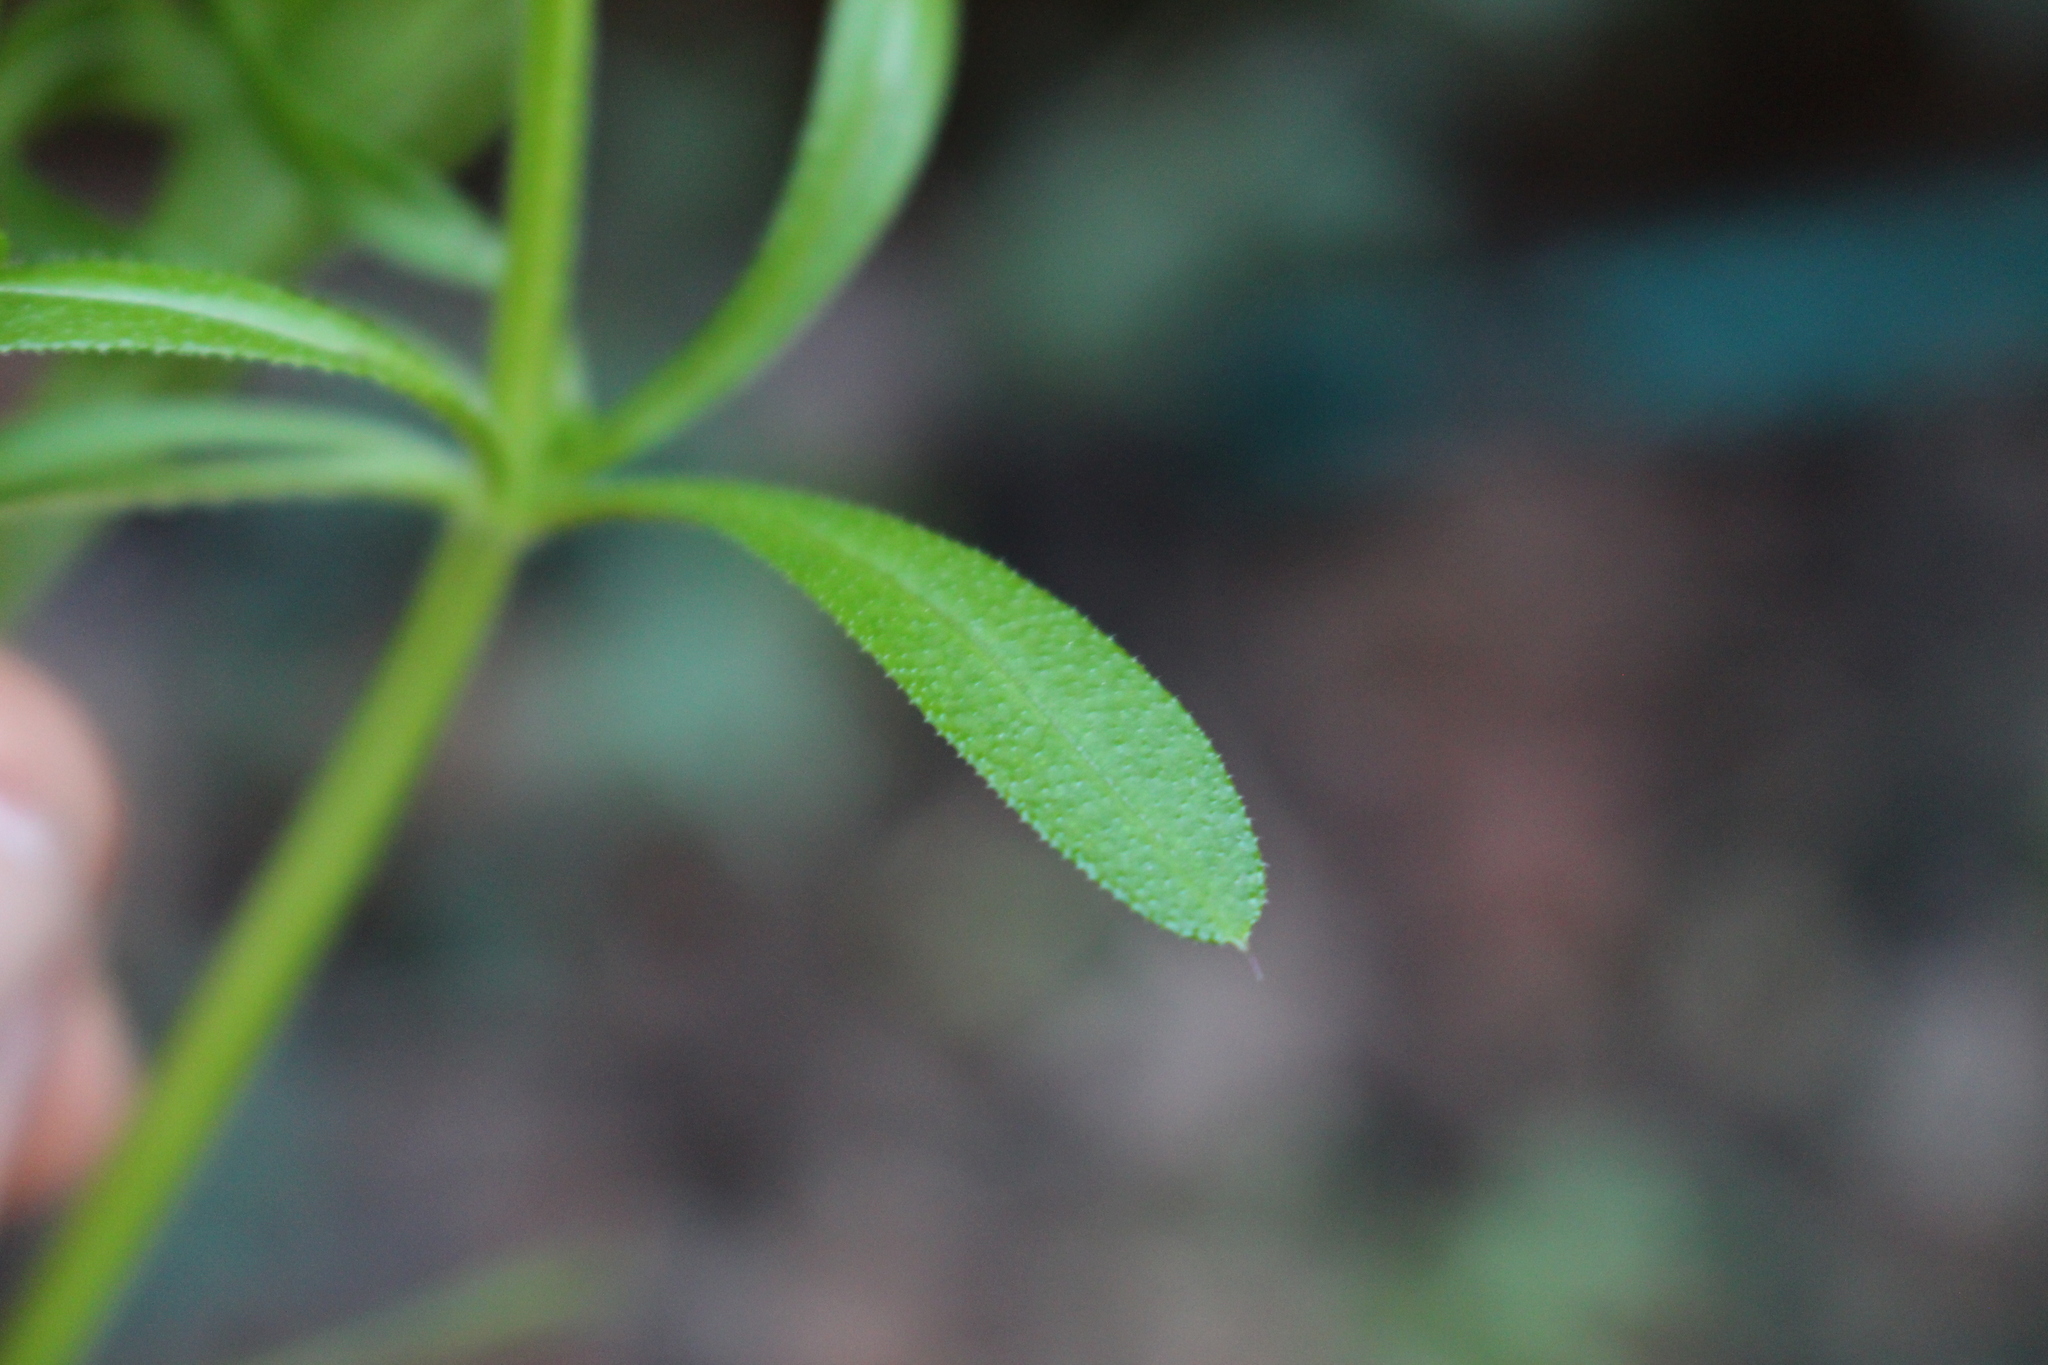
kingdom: Plantae
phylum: Tracheophyta
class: Magnoliopsida
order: Gentianales
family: Rubiaceae
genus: Galium
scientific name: Galium aparine
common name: Cleavers
